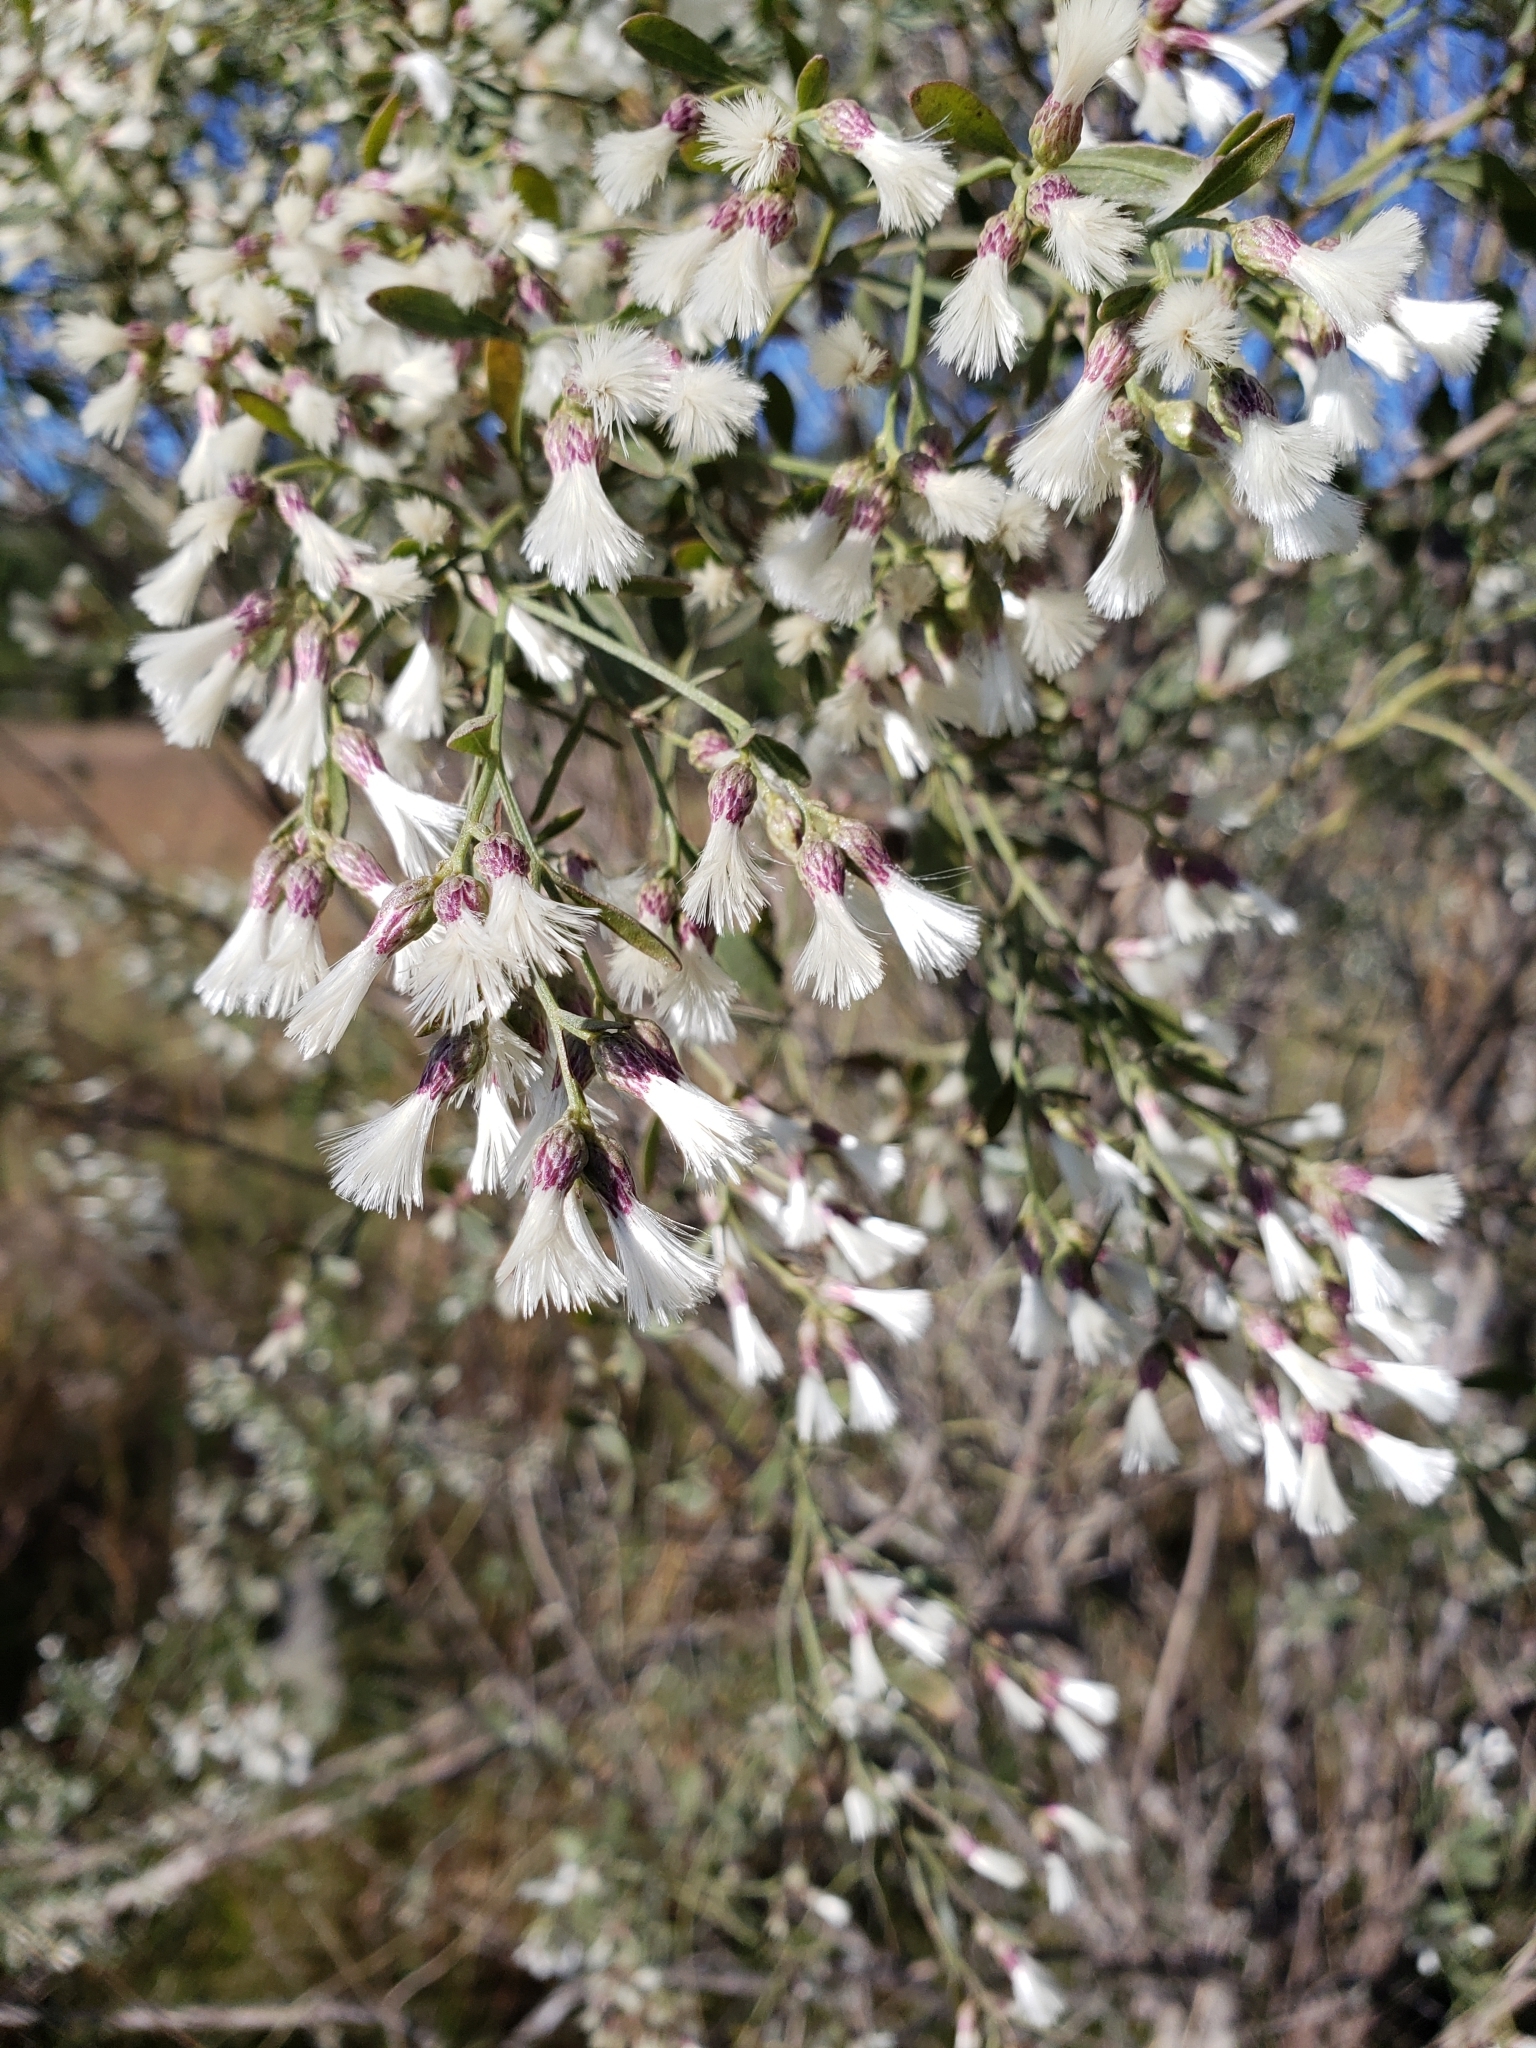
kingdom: Plantae
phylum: Tracheophyta
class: Magnoliopsida
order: Asterales
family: Asteraceae
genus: Baccharis
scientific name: Baccharis halimifolia
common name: Eastern baccharis
